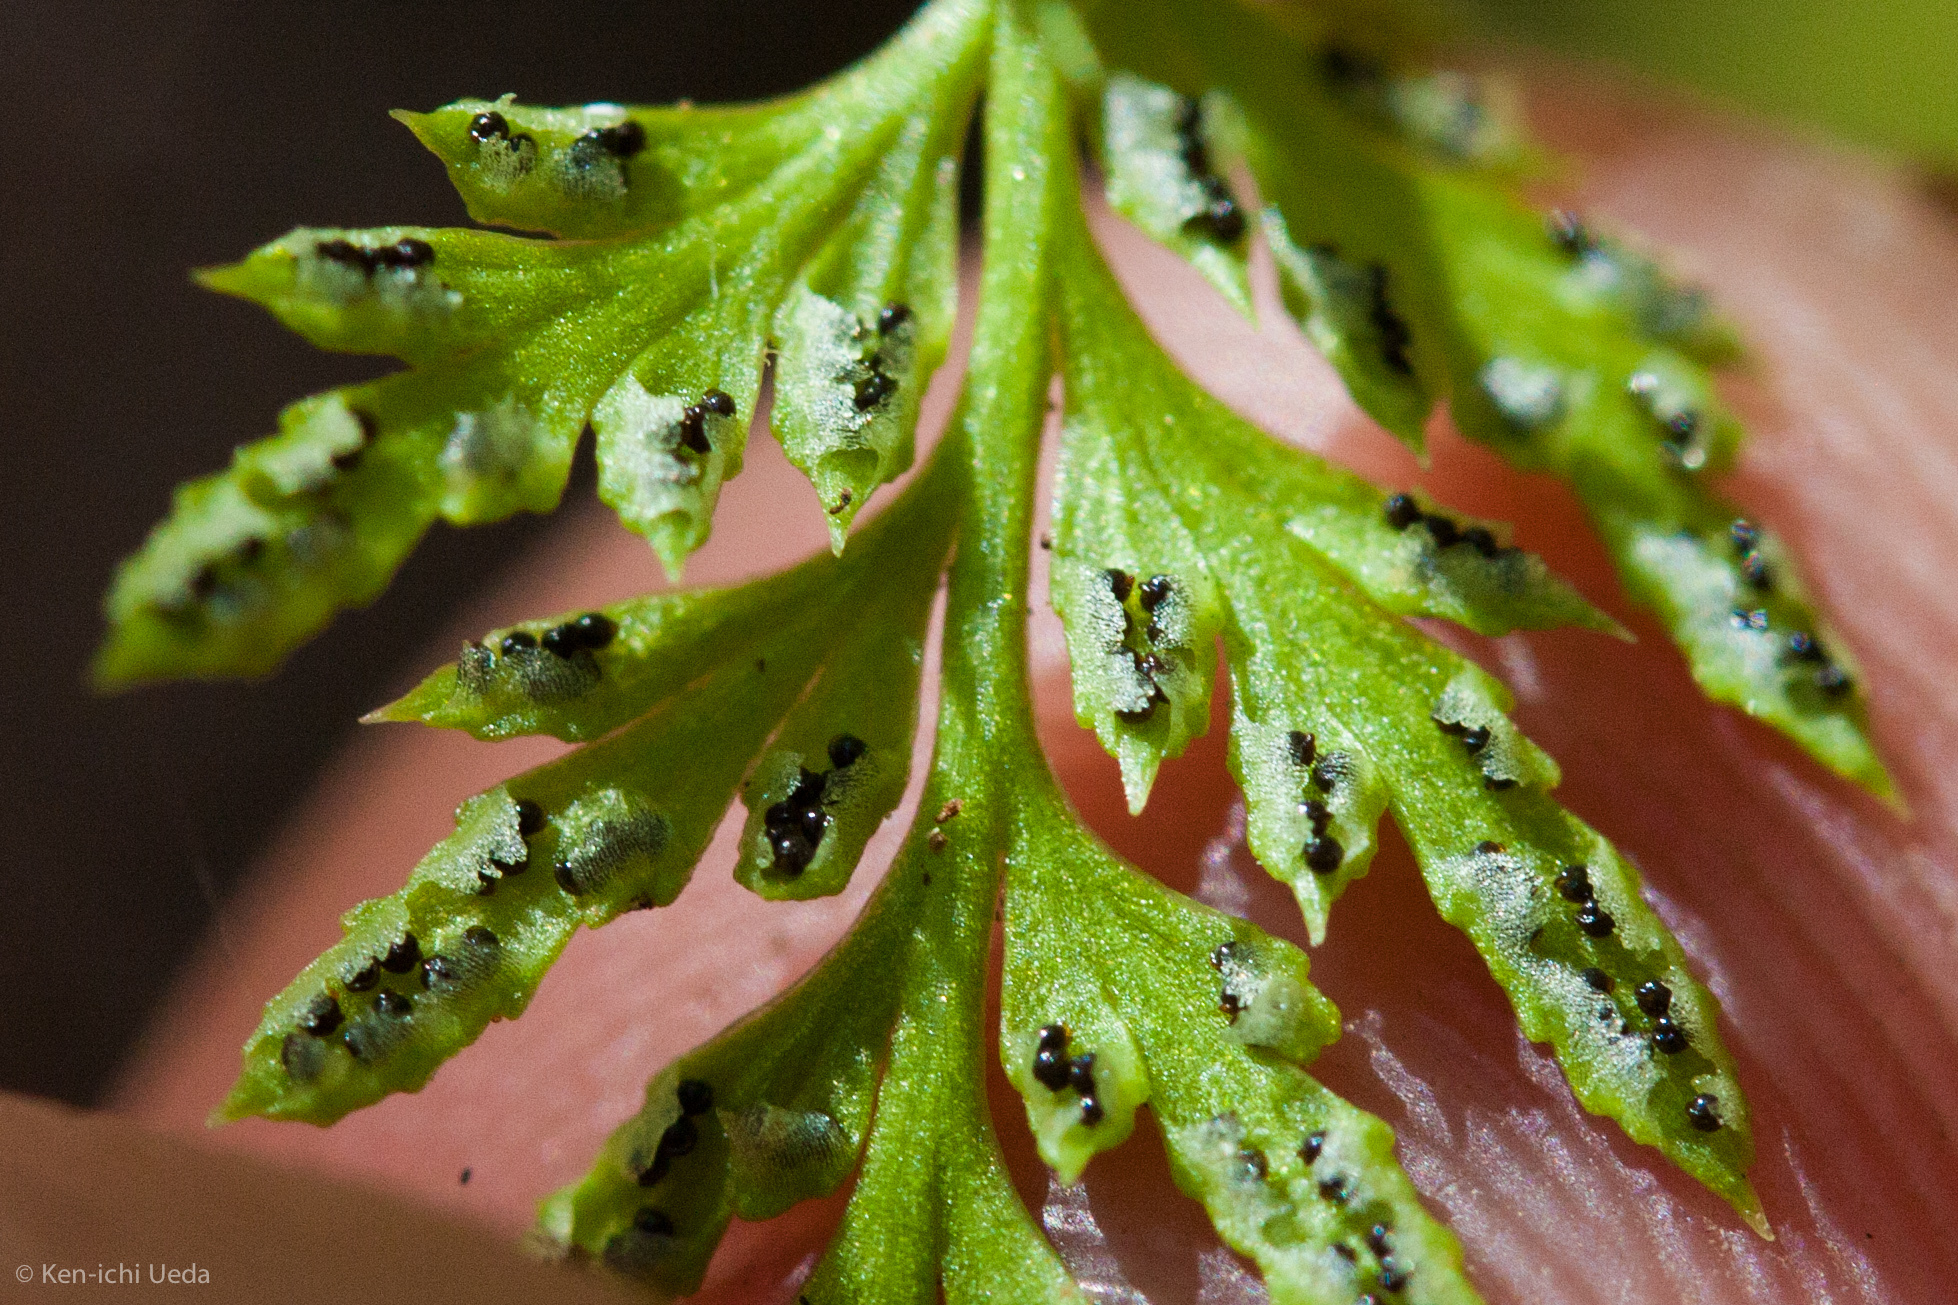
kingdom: Plantae
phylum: Tracheophyta
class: Polypodiopsida
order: Polypodiales
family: Pteridaceae
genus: Aspidotis
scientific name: Aspidotis carlotta-halliae
